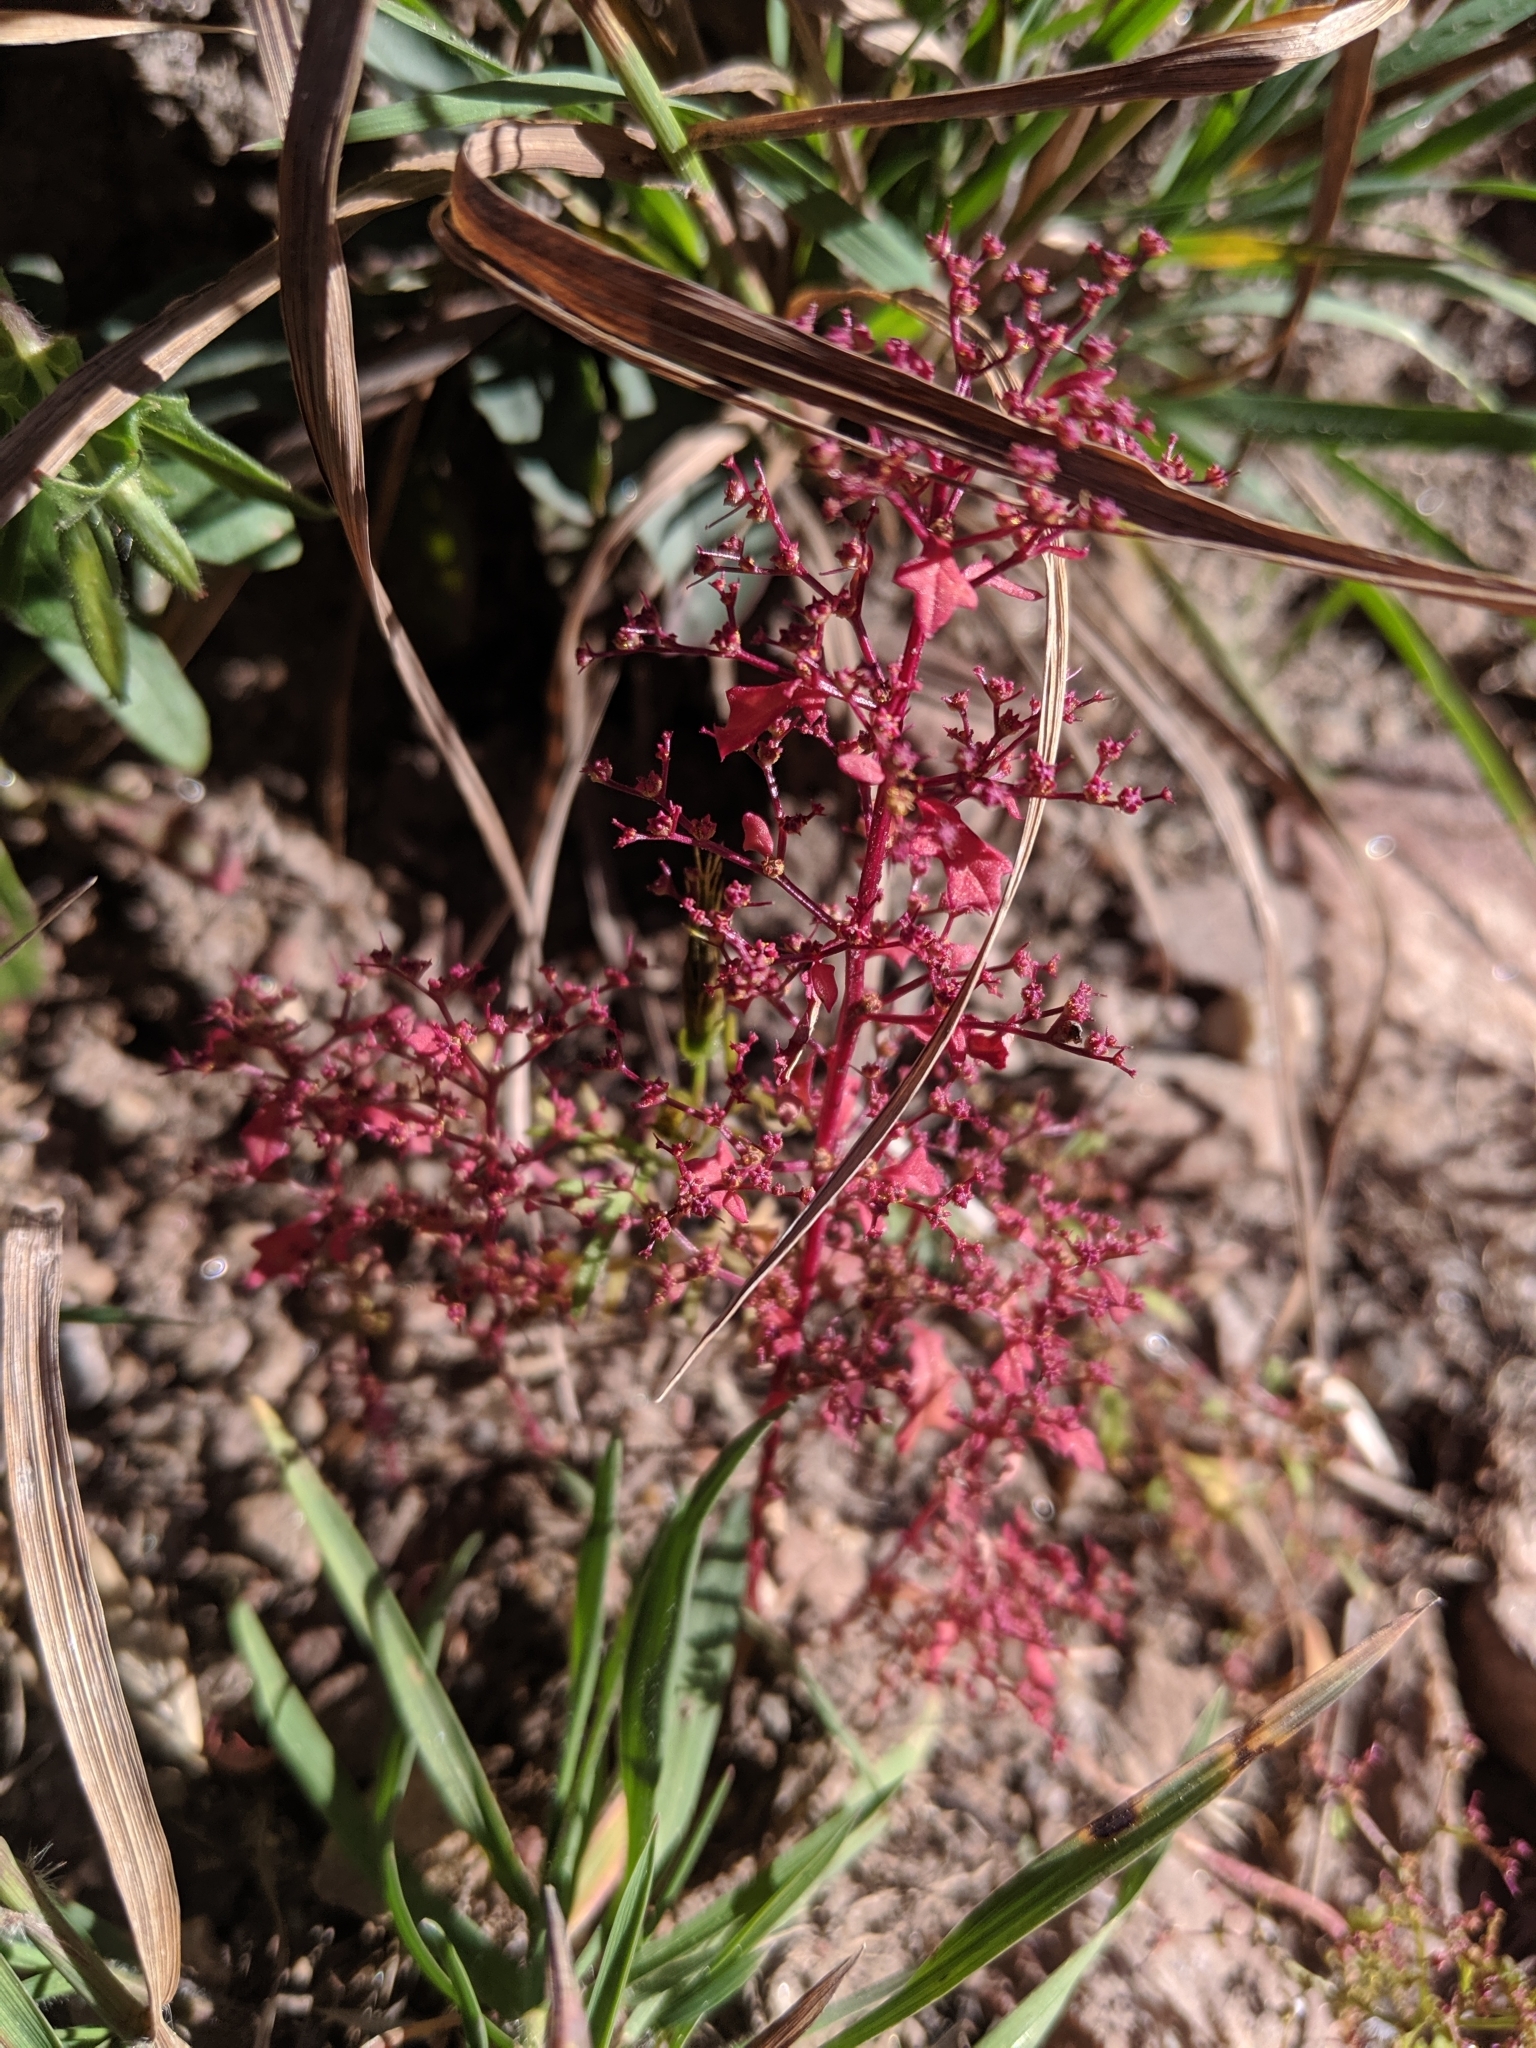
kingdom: Plantae
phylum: Tracheophyta
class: Magnoliopsida
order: Caryophyllales
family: Amaranthaceae
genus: Dysphania
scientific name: Dysphania incisa
